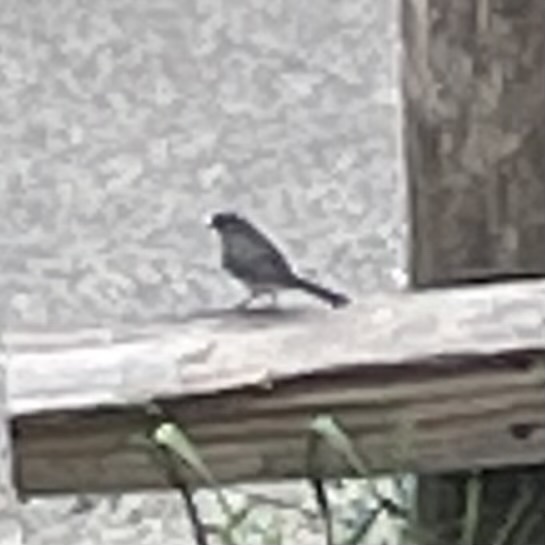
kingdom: Animalia
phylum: Chordata
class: Aves
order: Passeriformes
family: Passerellidae
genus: Junco
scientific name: Junco hyemalis
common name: Dark-eyed junco
